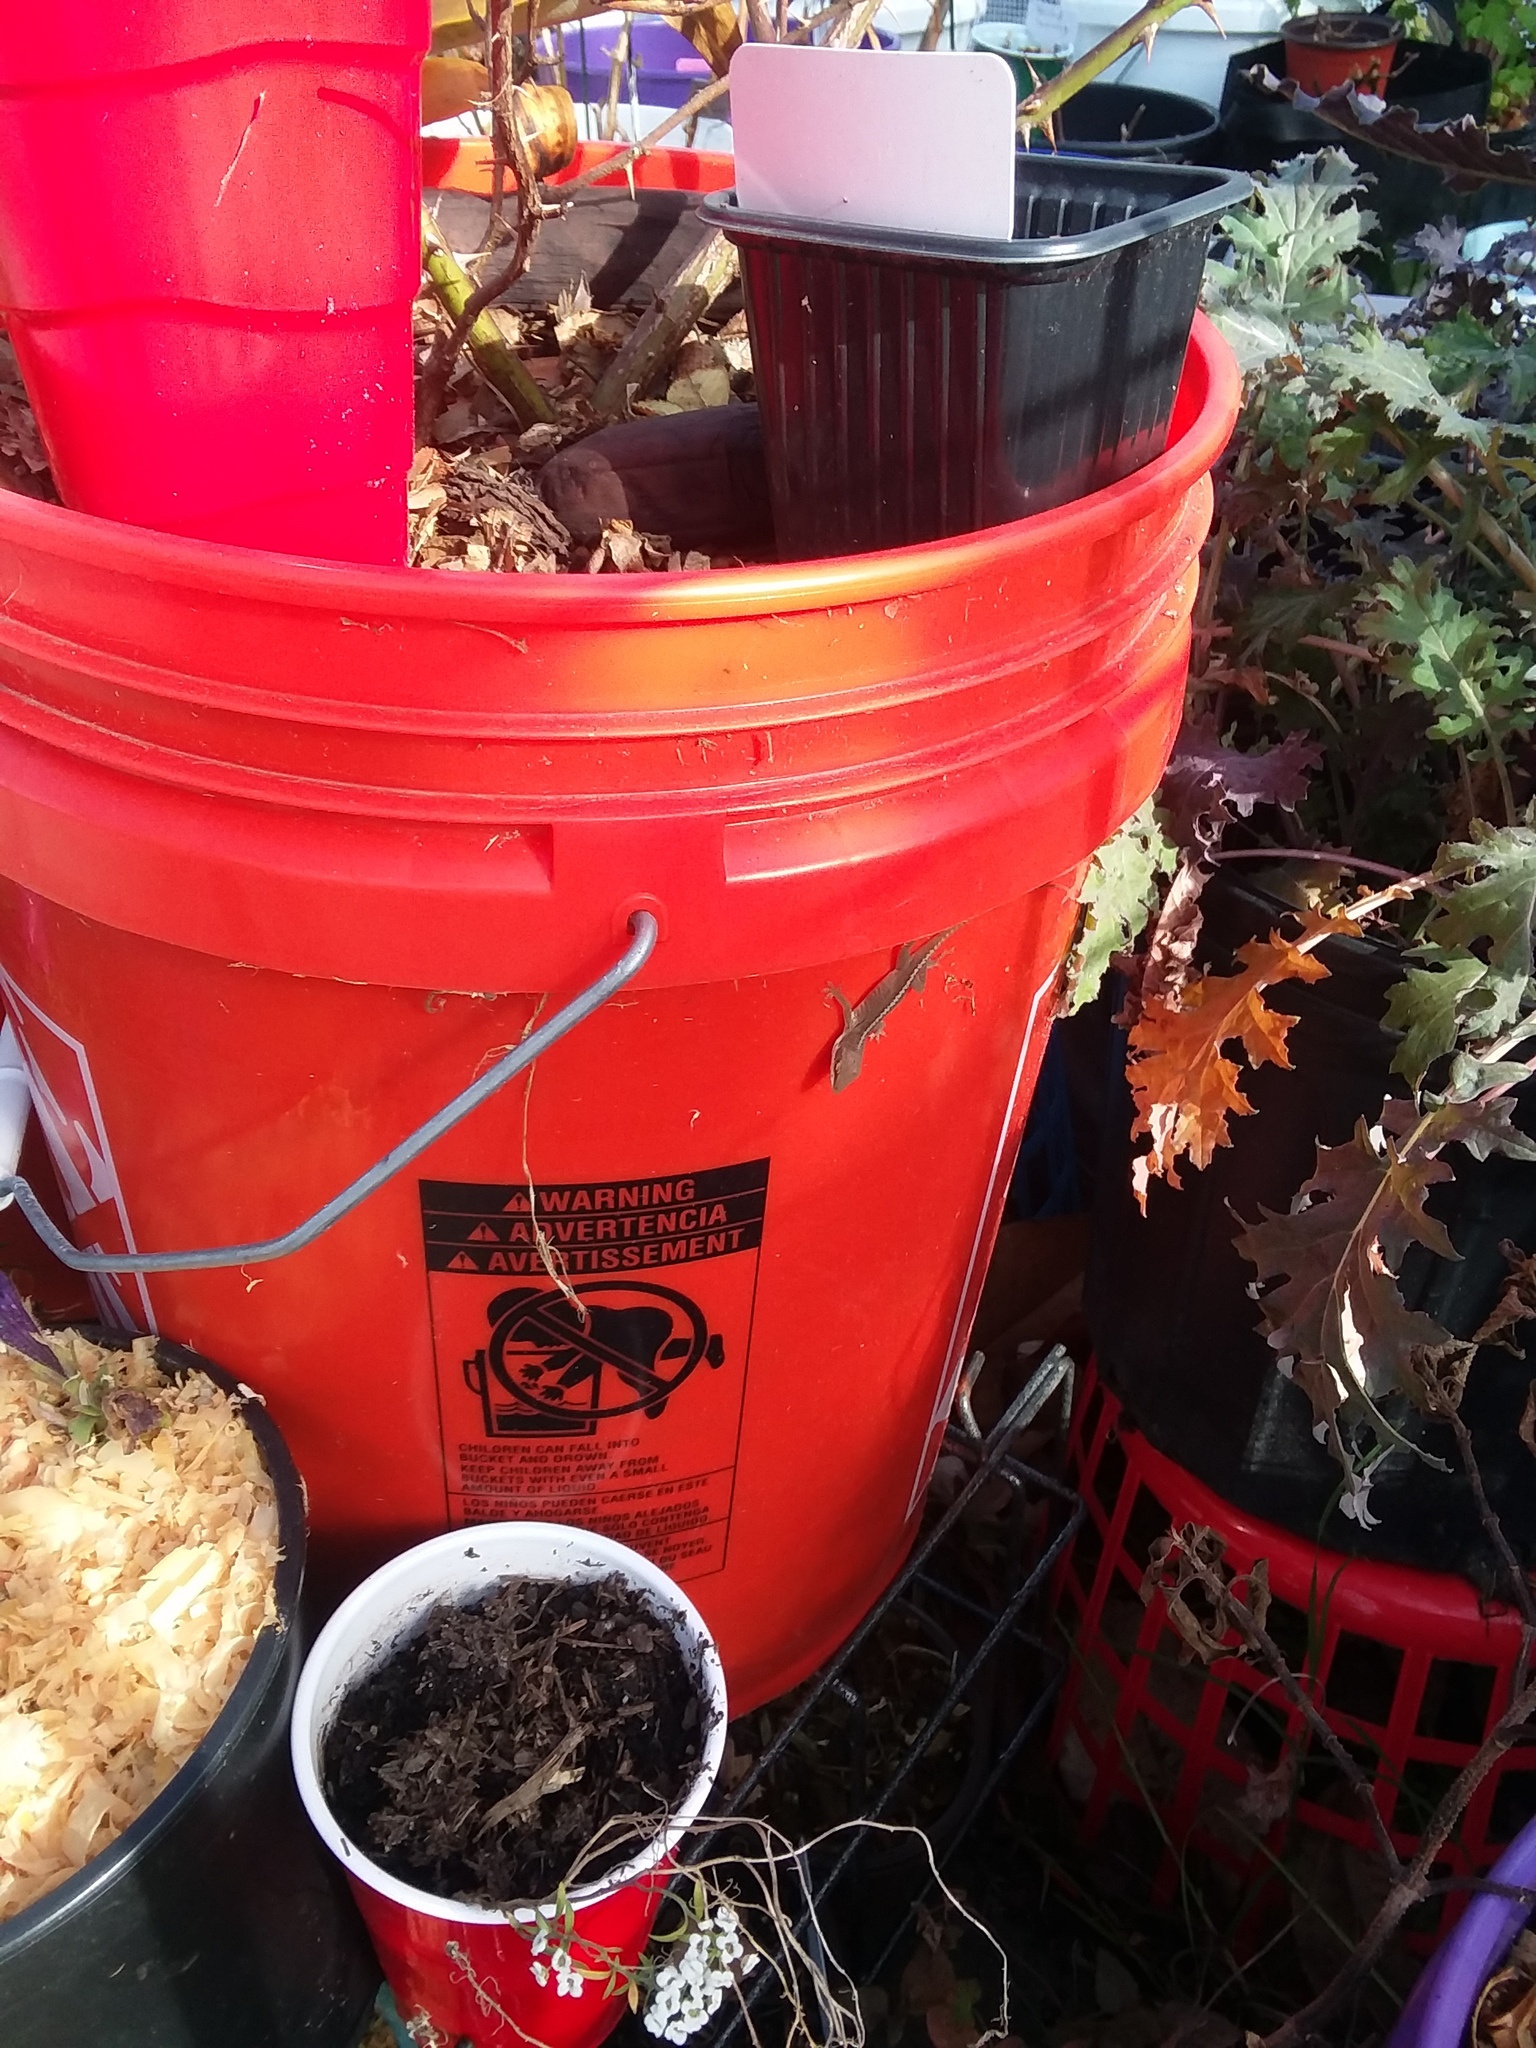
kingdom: Animalia
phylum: Chordata
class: Squamata
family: Dactyloidae
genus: Anolis
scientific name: Anolis carolinensis
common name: Green anole
